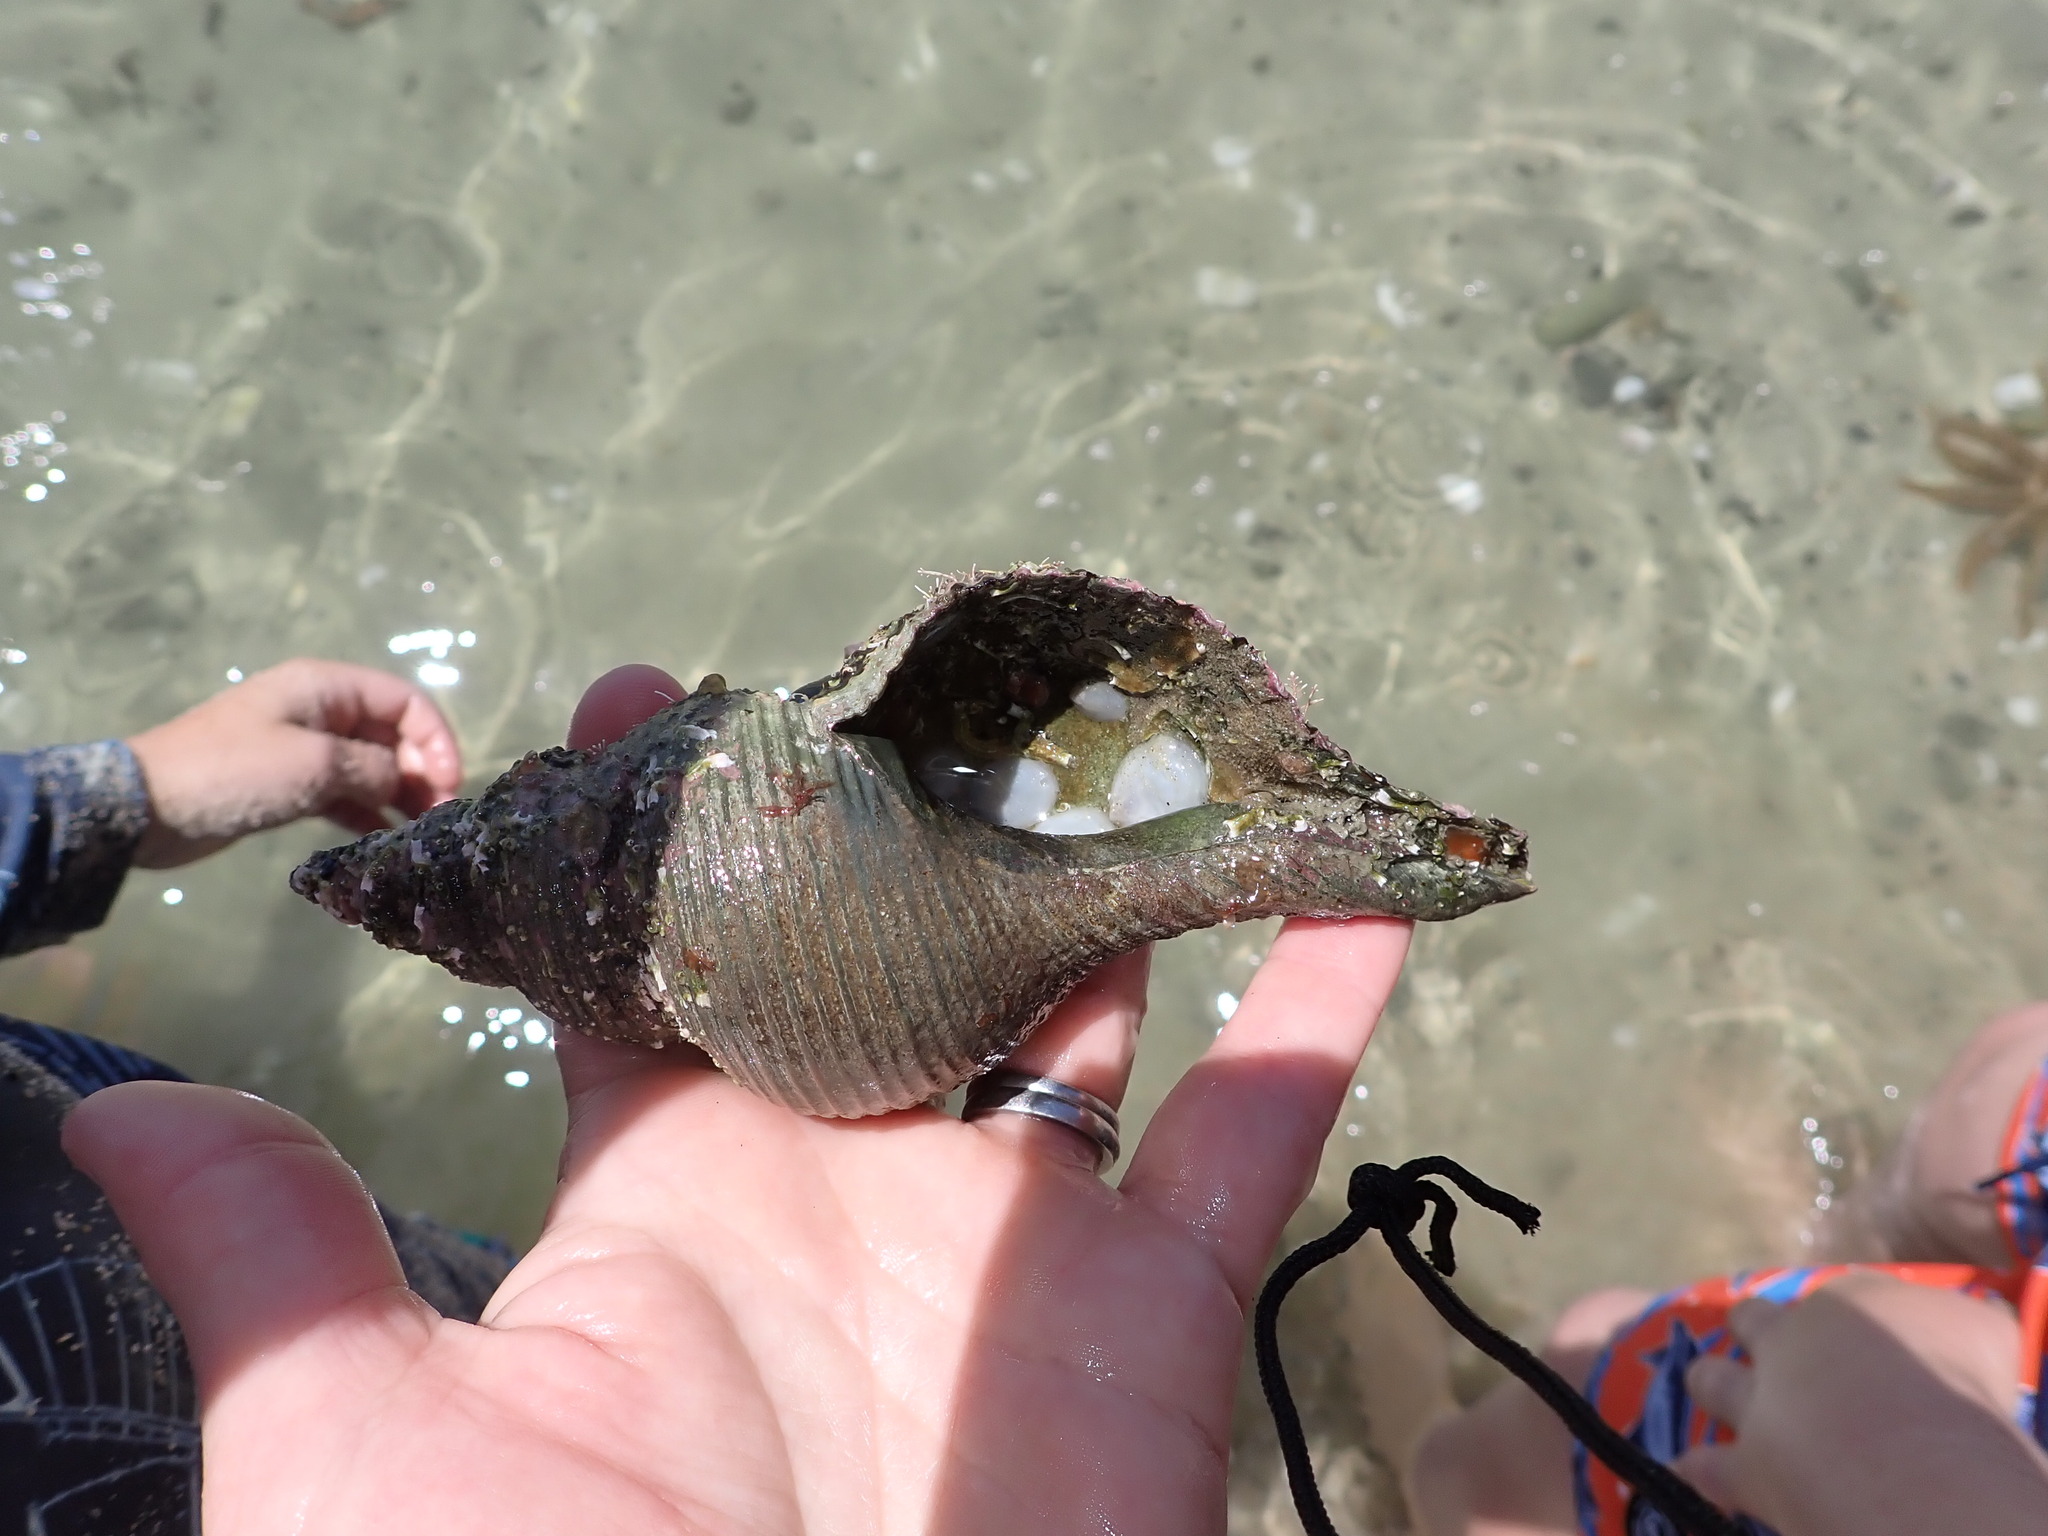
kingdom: Animalia
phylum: Mollusca
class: Gastropoda
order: Neogastropoda
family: Austrosiphonidae
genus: Penion
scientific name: Penion sulcatus
